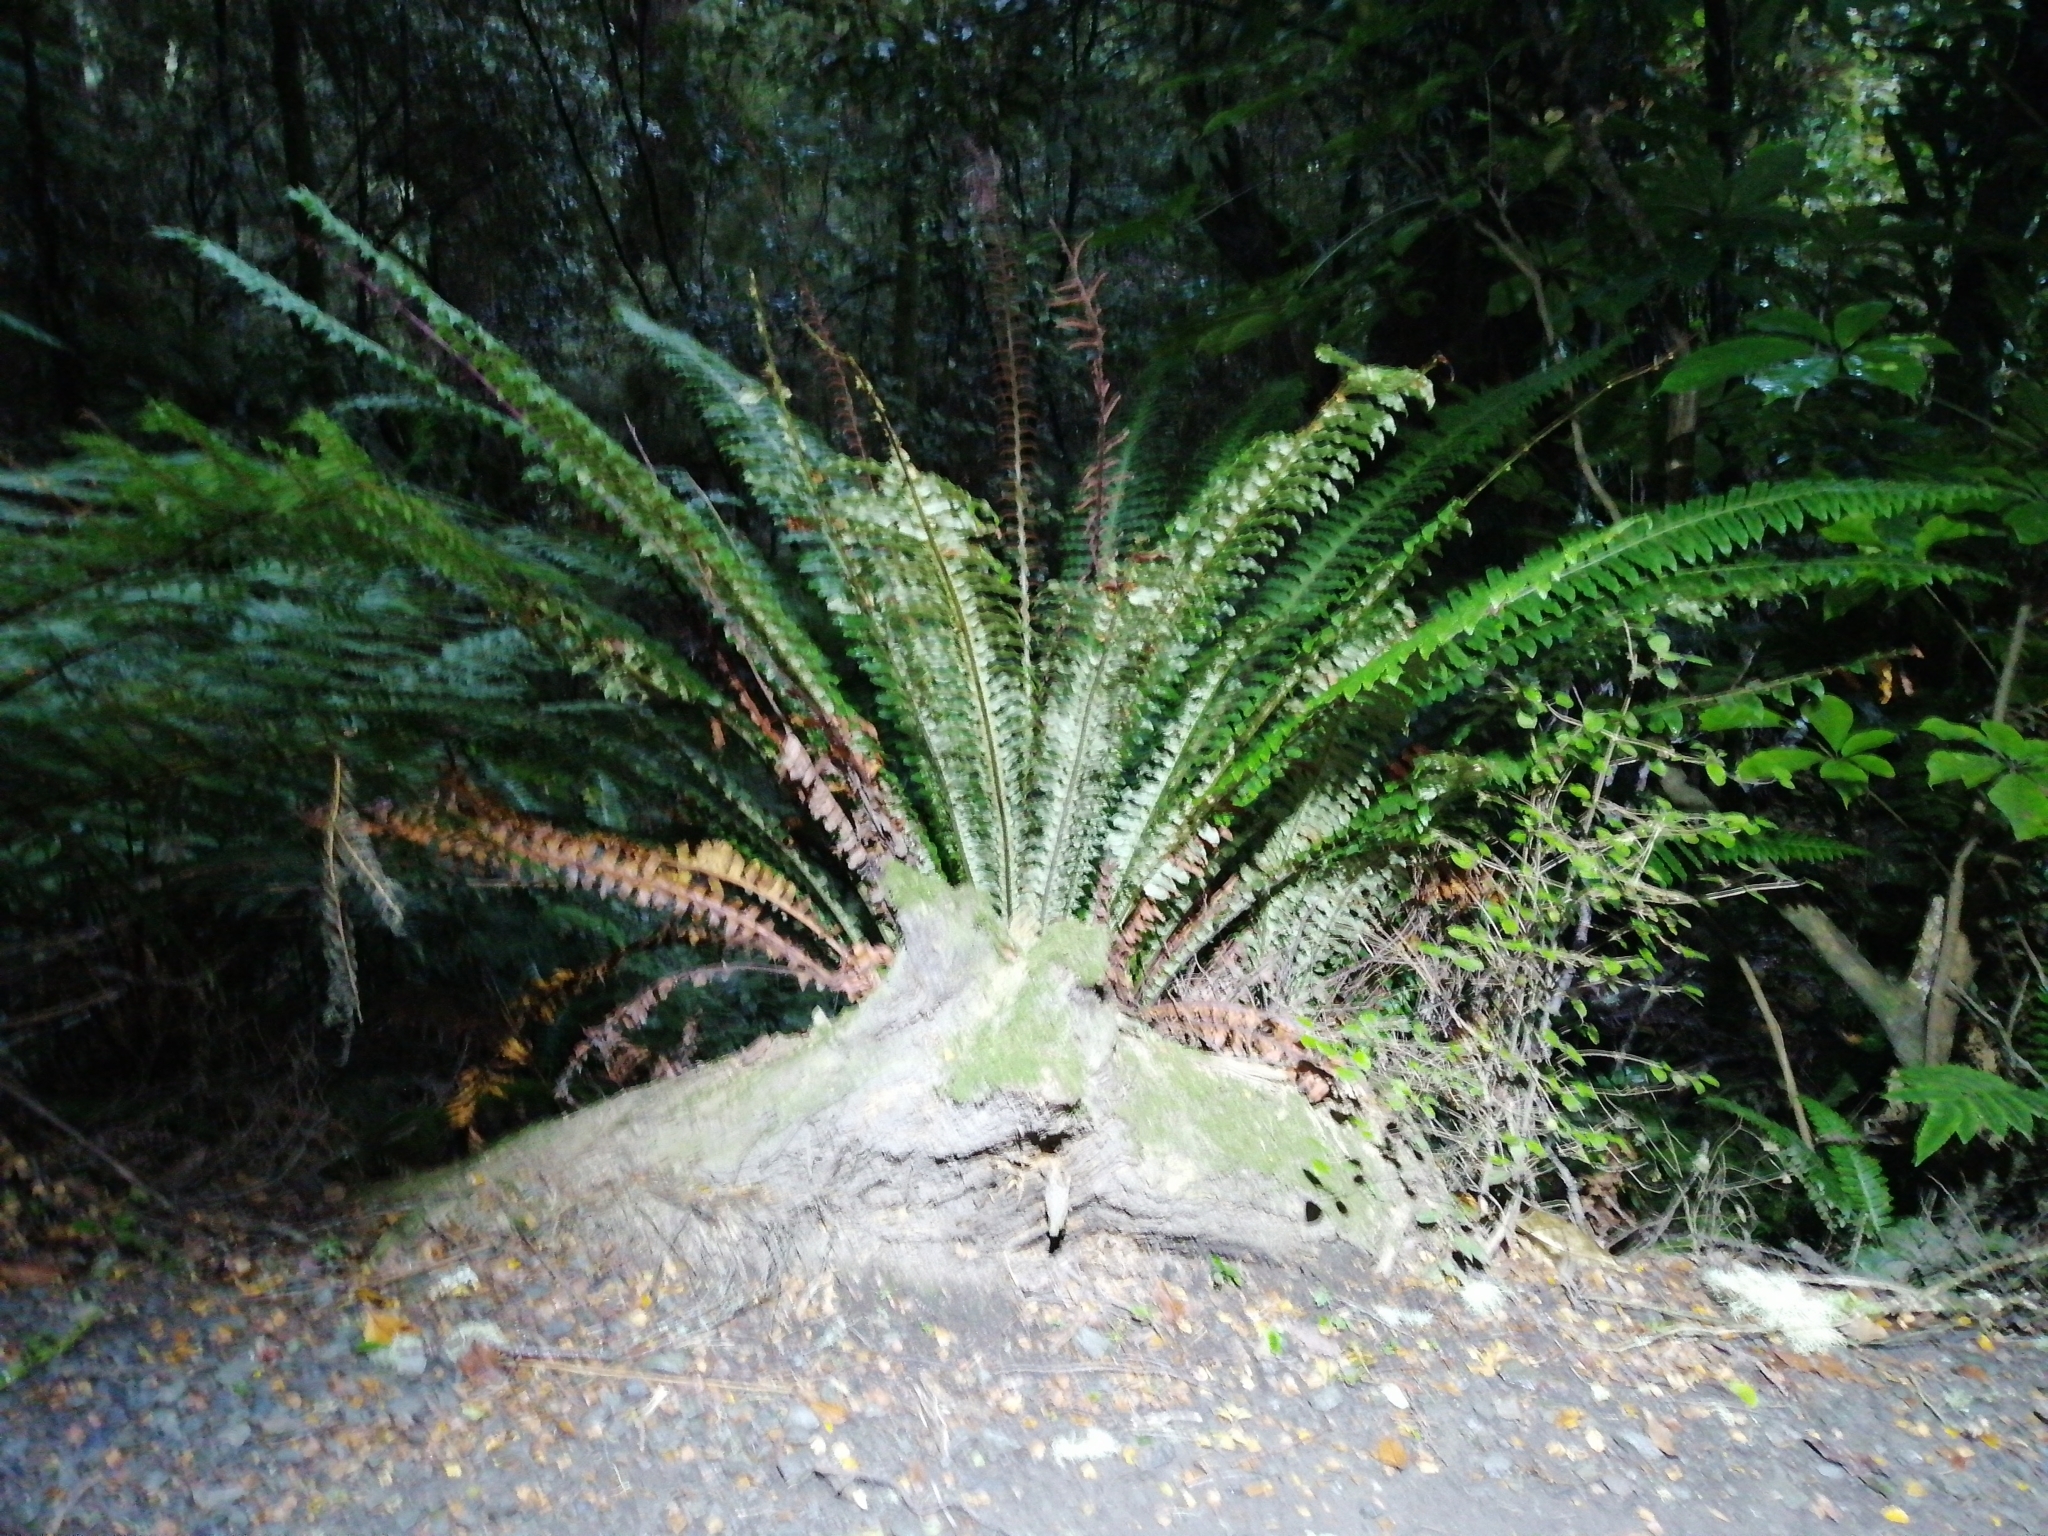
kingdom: Plantae
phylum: Tracheophyta
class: Polypodiopsida
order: Polypodiales
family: Blechnaceae
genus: Lomaria
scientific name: Lomaria discolor
